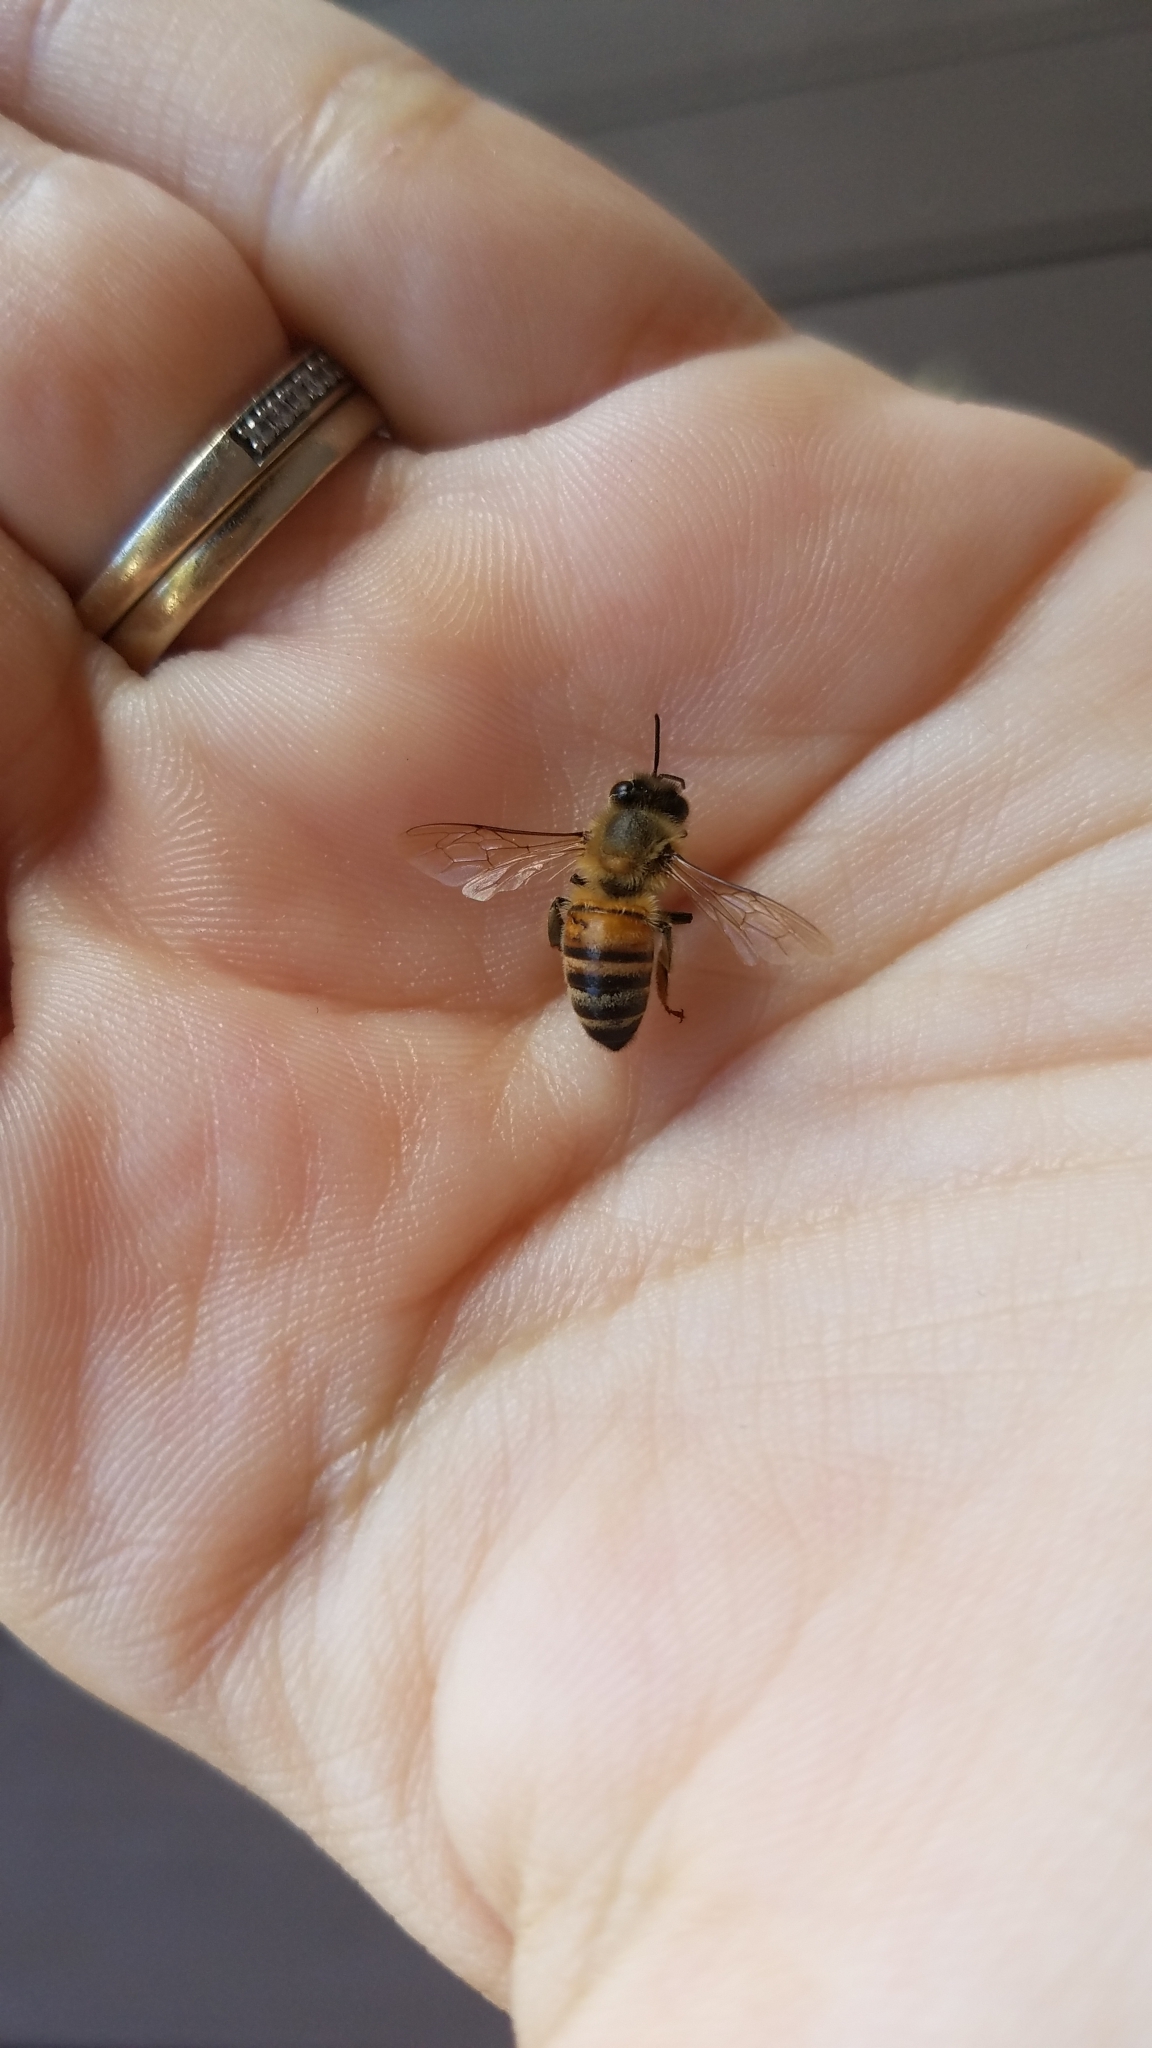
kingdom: Animalia
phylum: Arthropoda
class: Insecta
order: Hymenoptera
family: Apidae
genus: Apis
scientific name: Apis mellifera
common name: Honey bee
